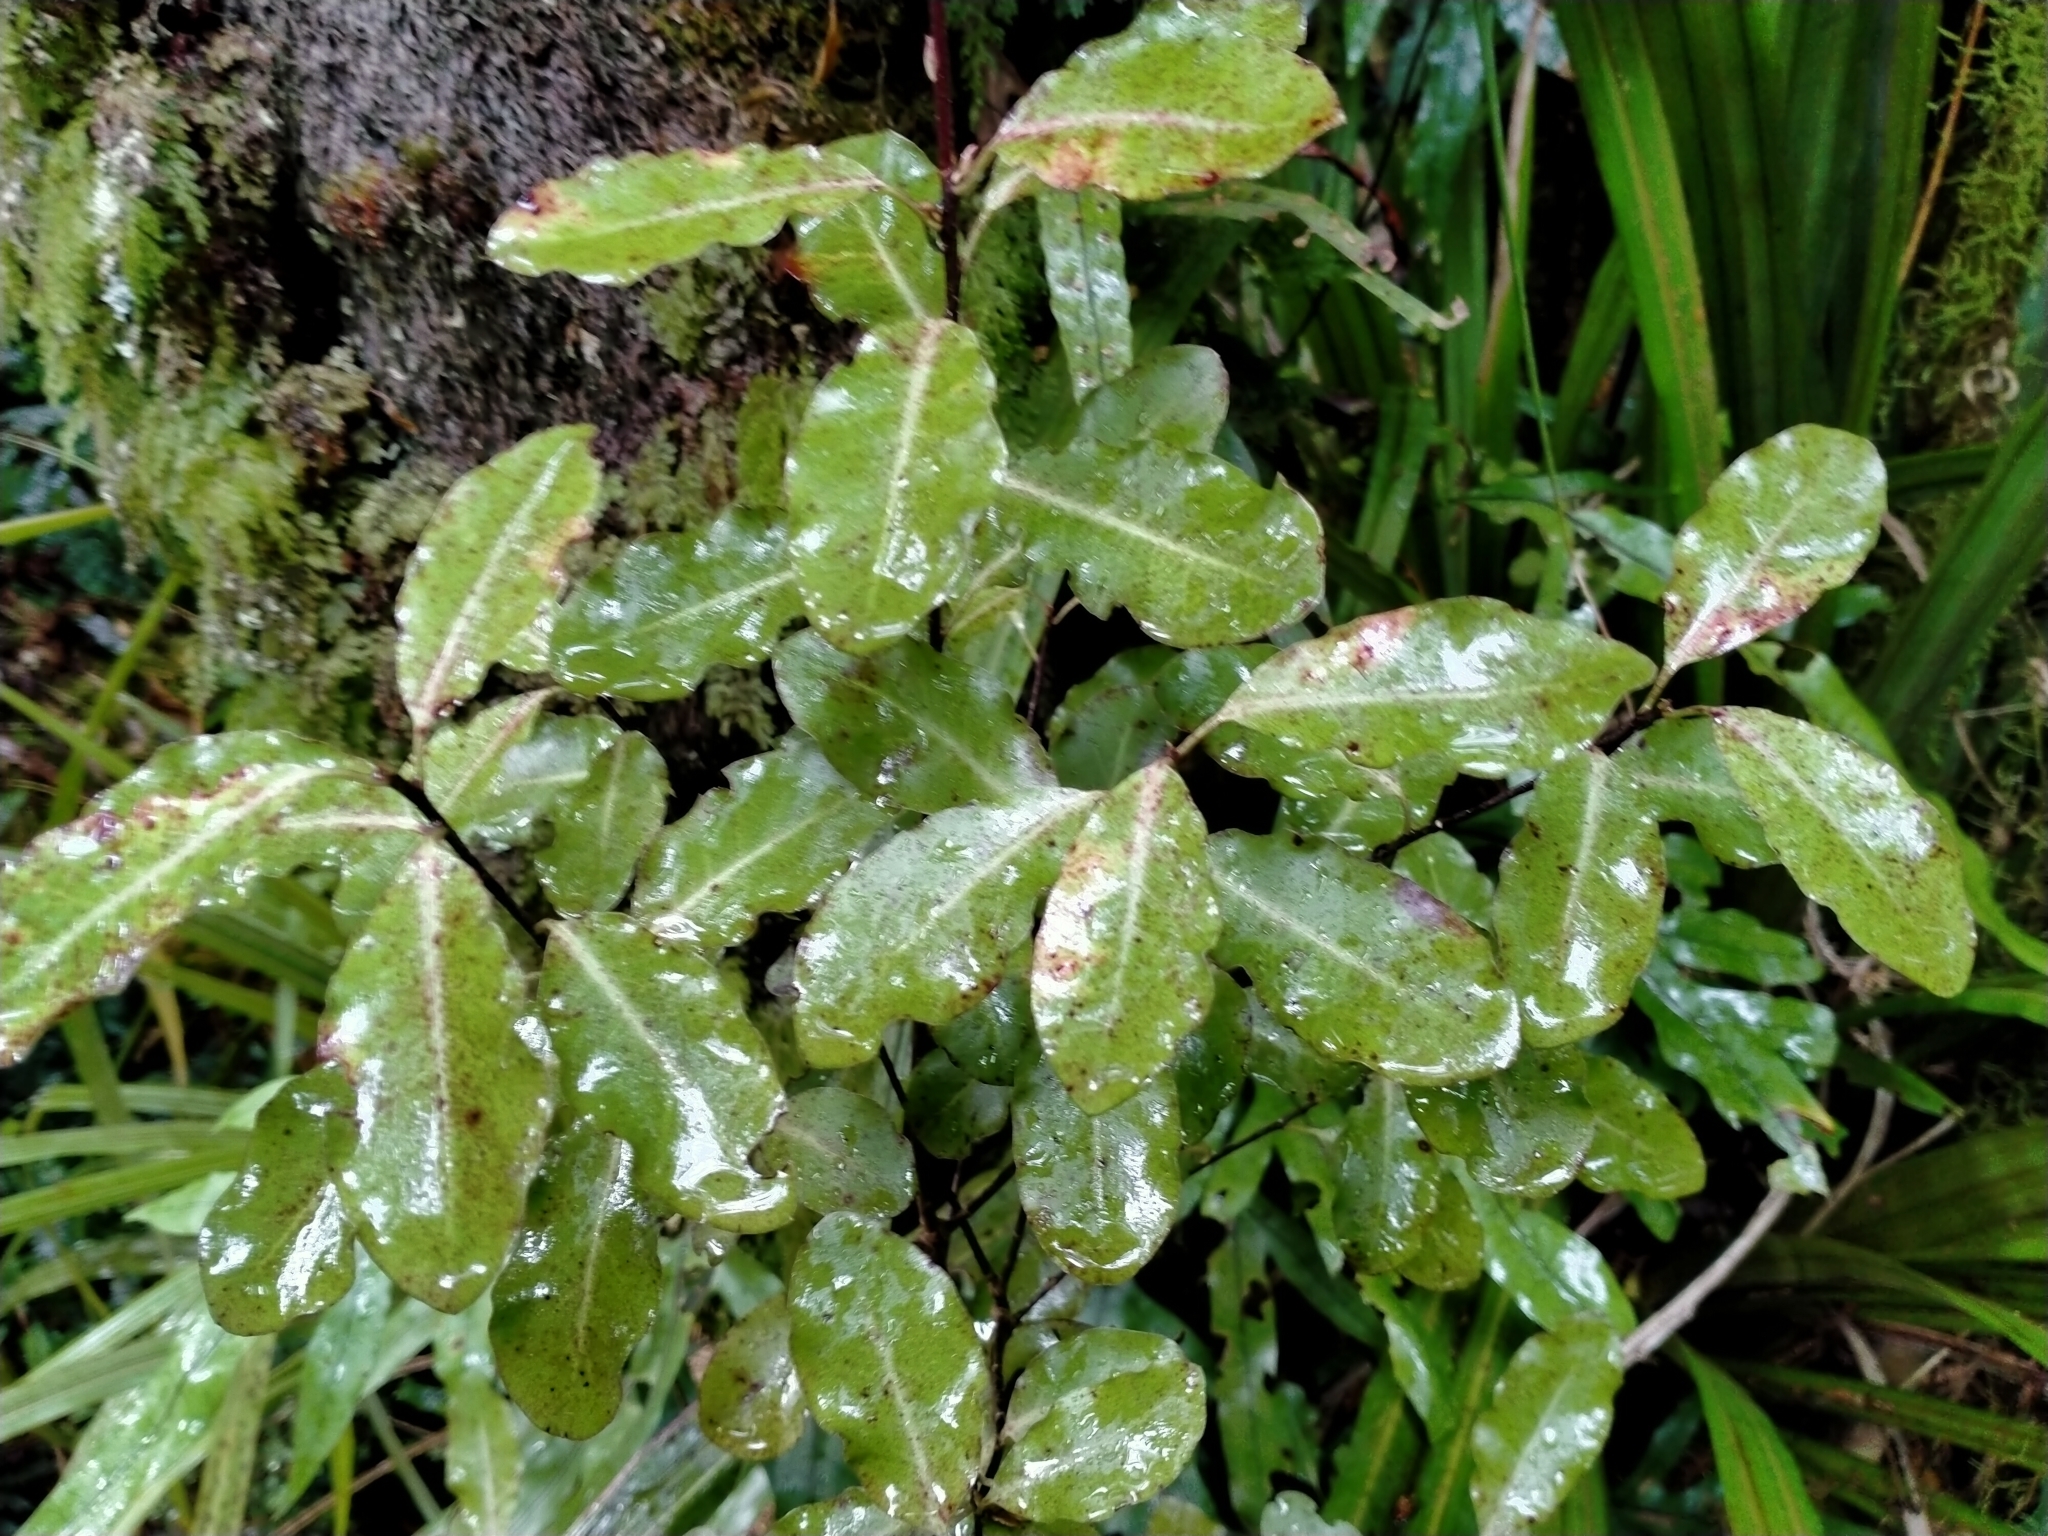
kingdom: Plantae
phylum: Tracheophyta
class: Magnoliopsida
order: Apiales
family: Pittosporaceae
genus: Pittosporum
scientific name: Pittosporum tenuifolium
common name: Kohuhu
